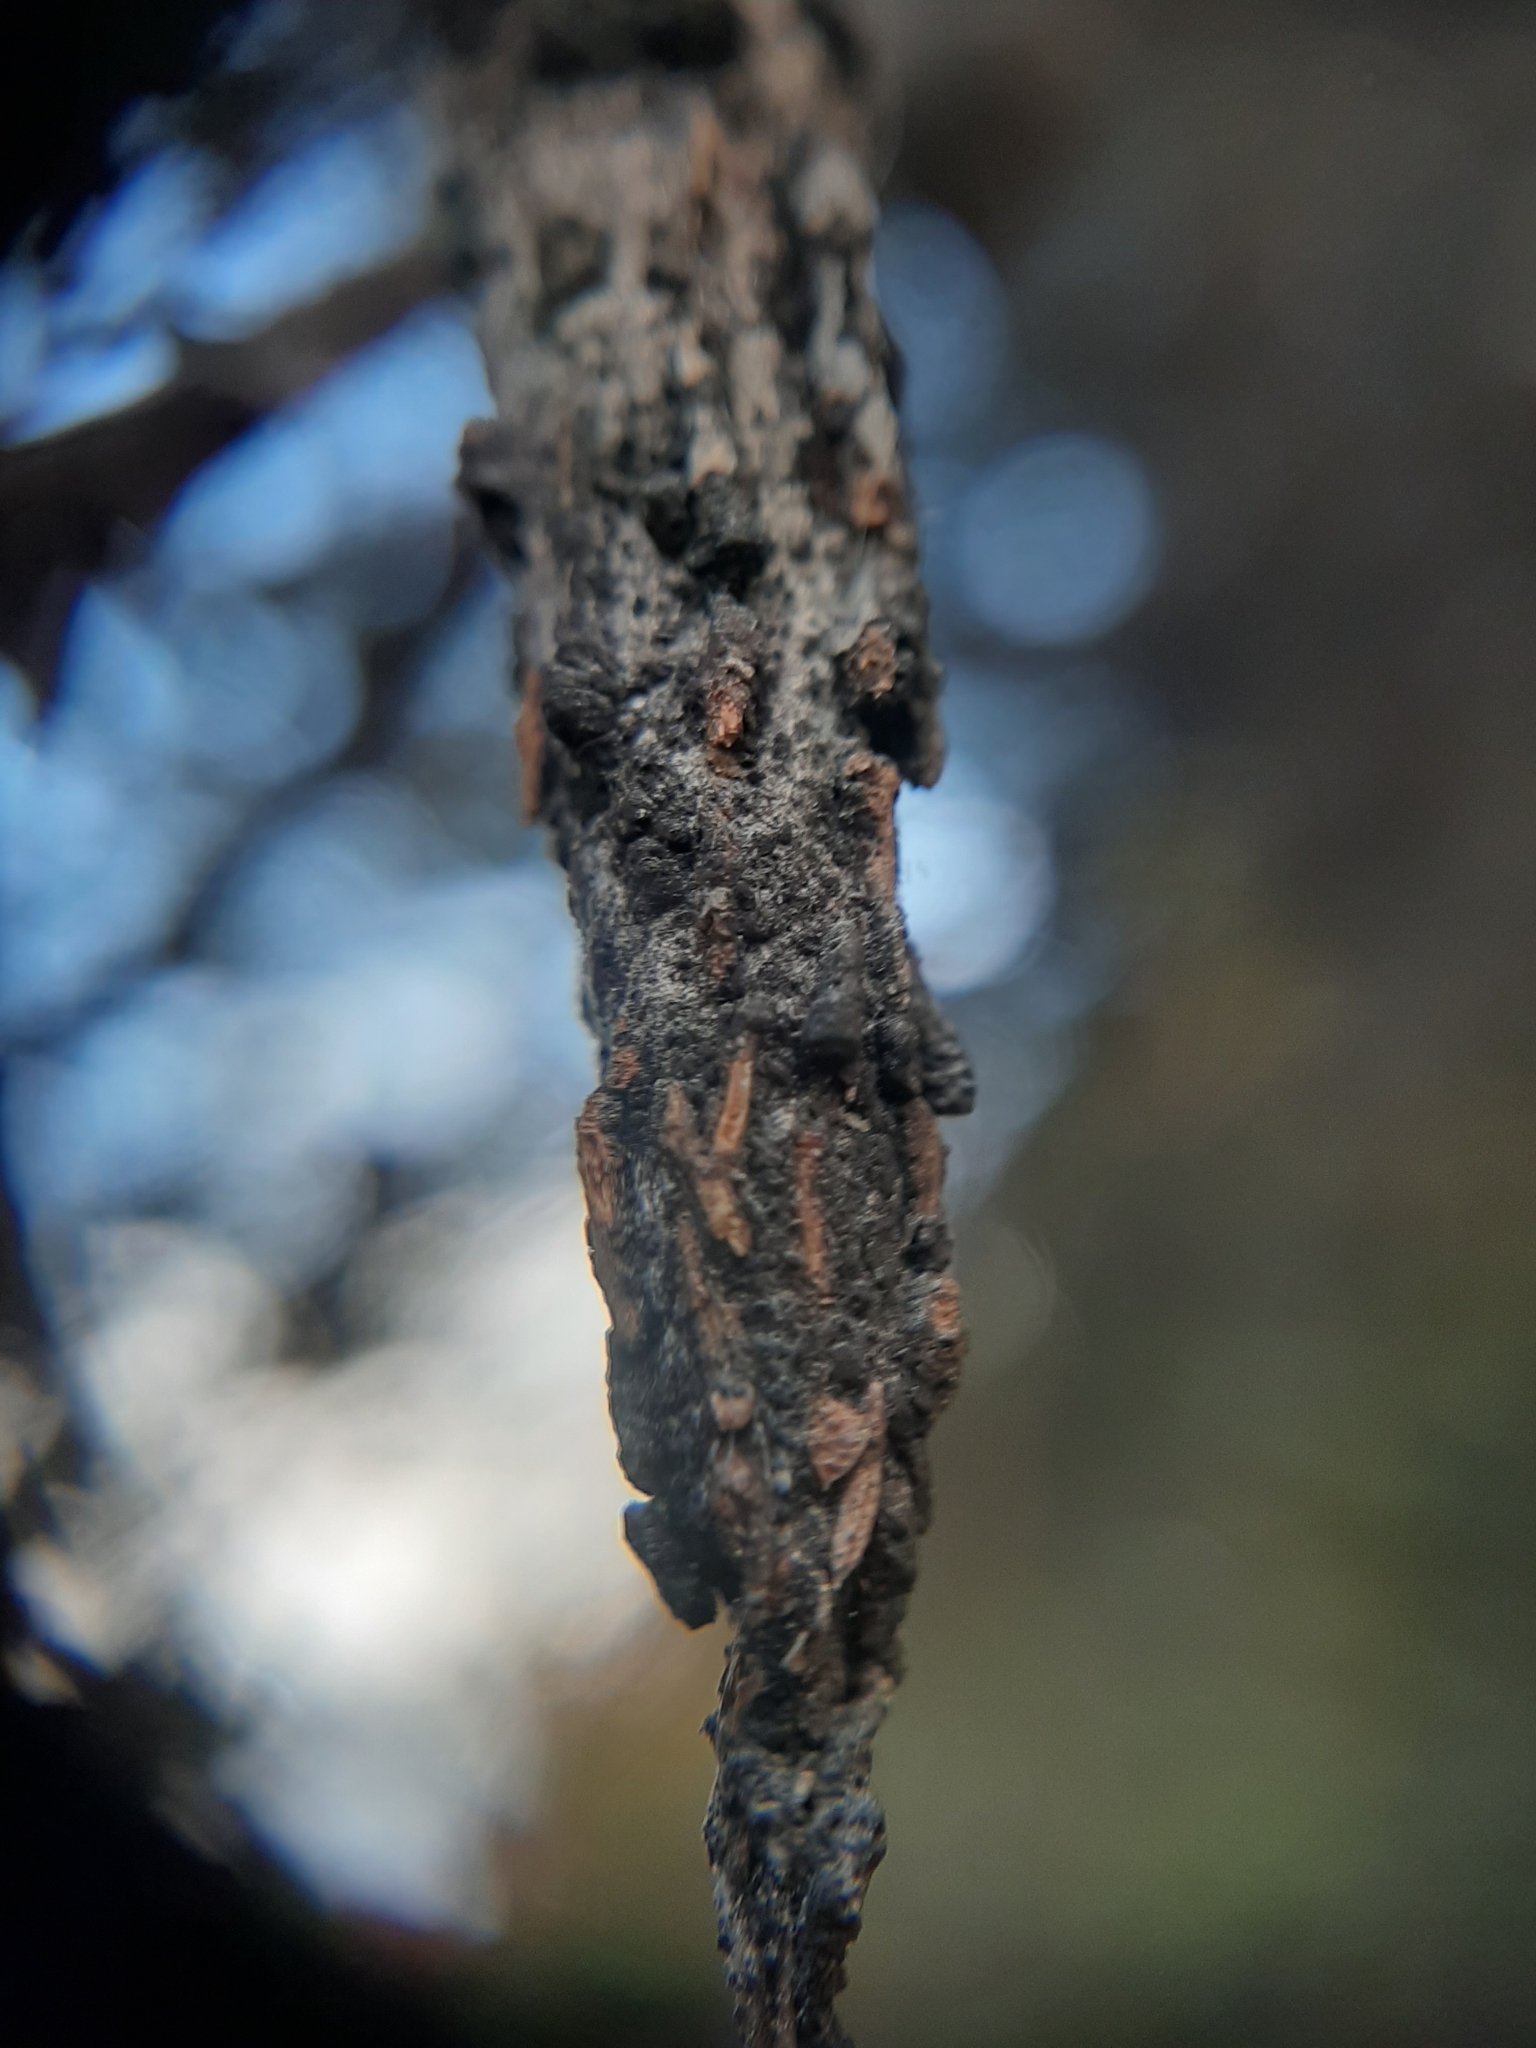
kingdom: Animalia
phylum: Arthropoda
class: Insecta
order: Lepidoptera
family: Psychidae
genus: Liothula
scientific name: Liothula omnivora
